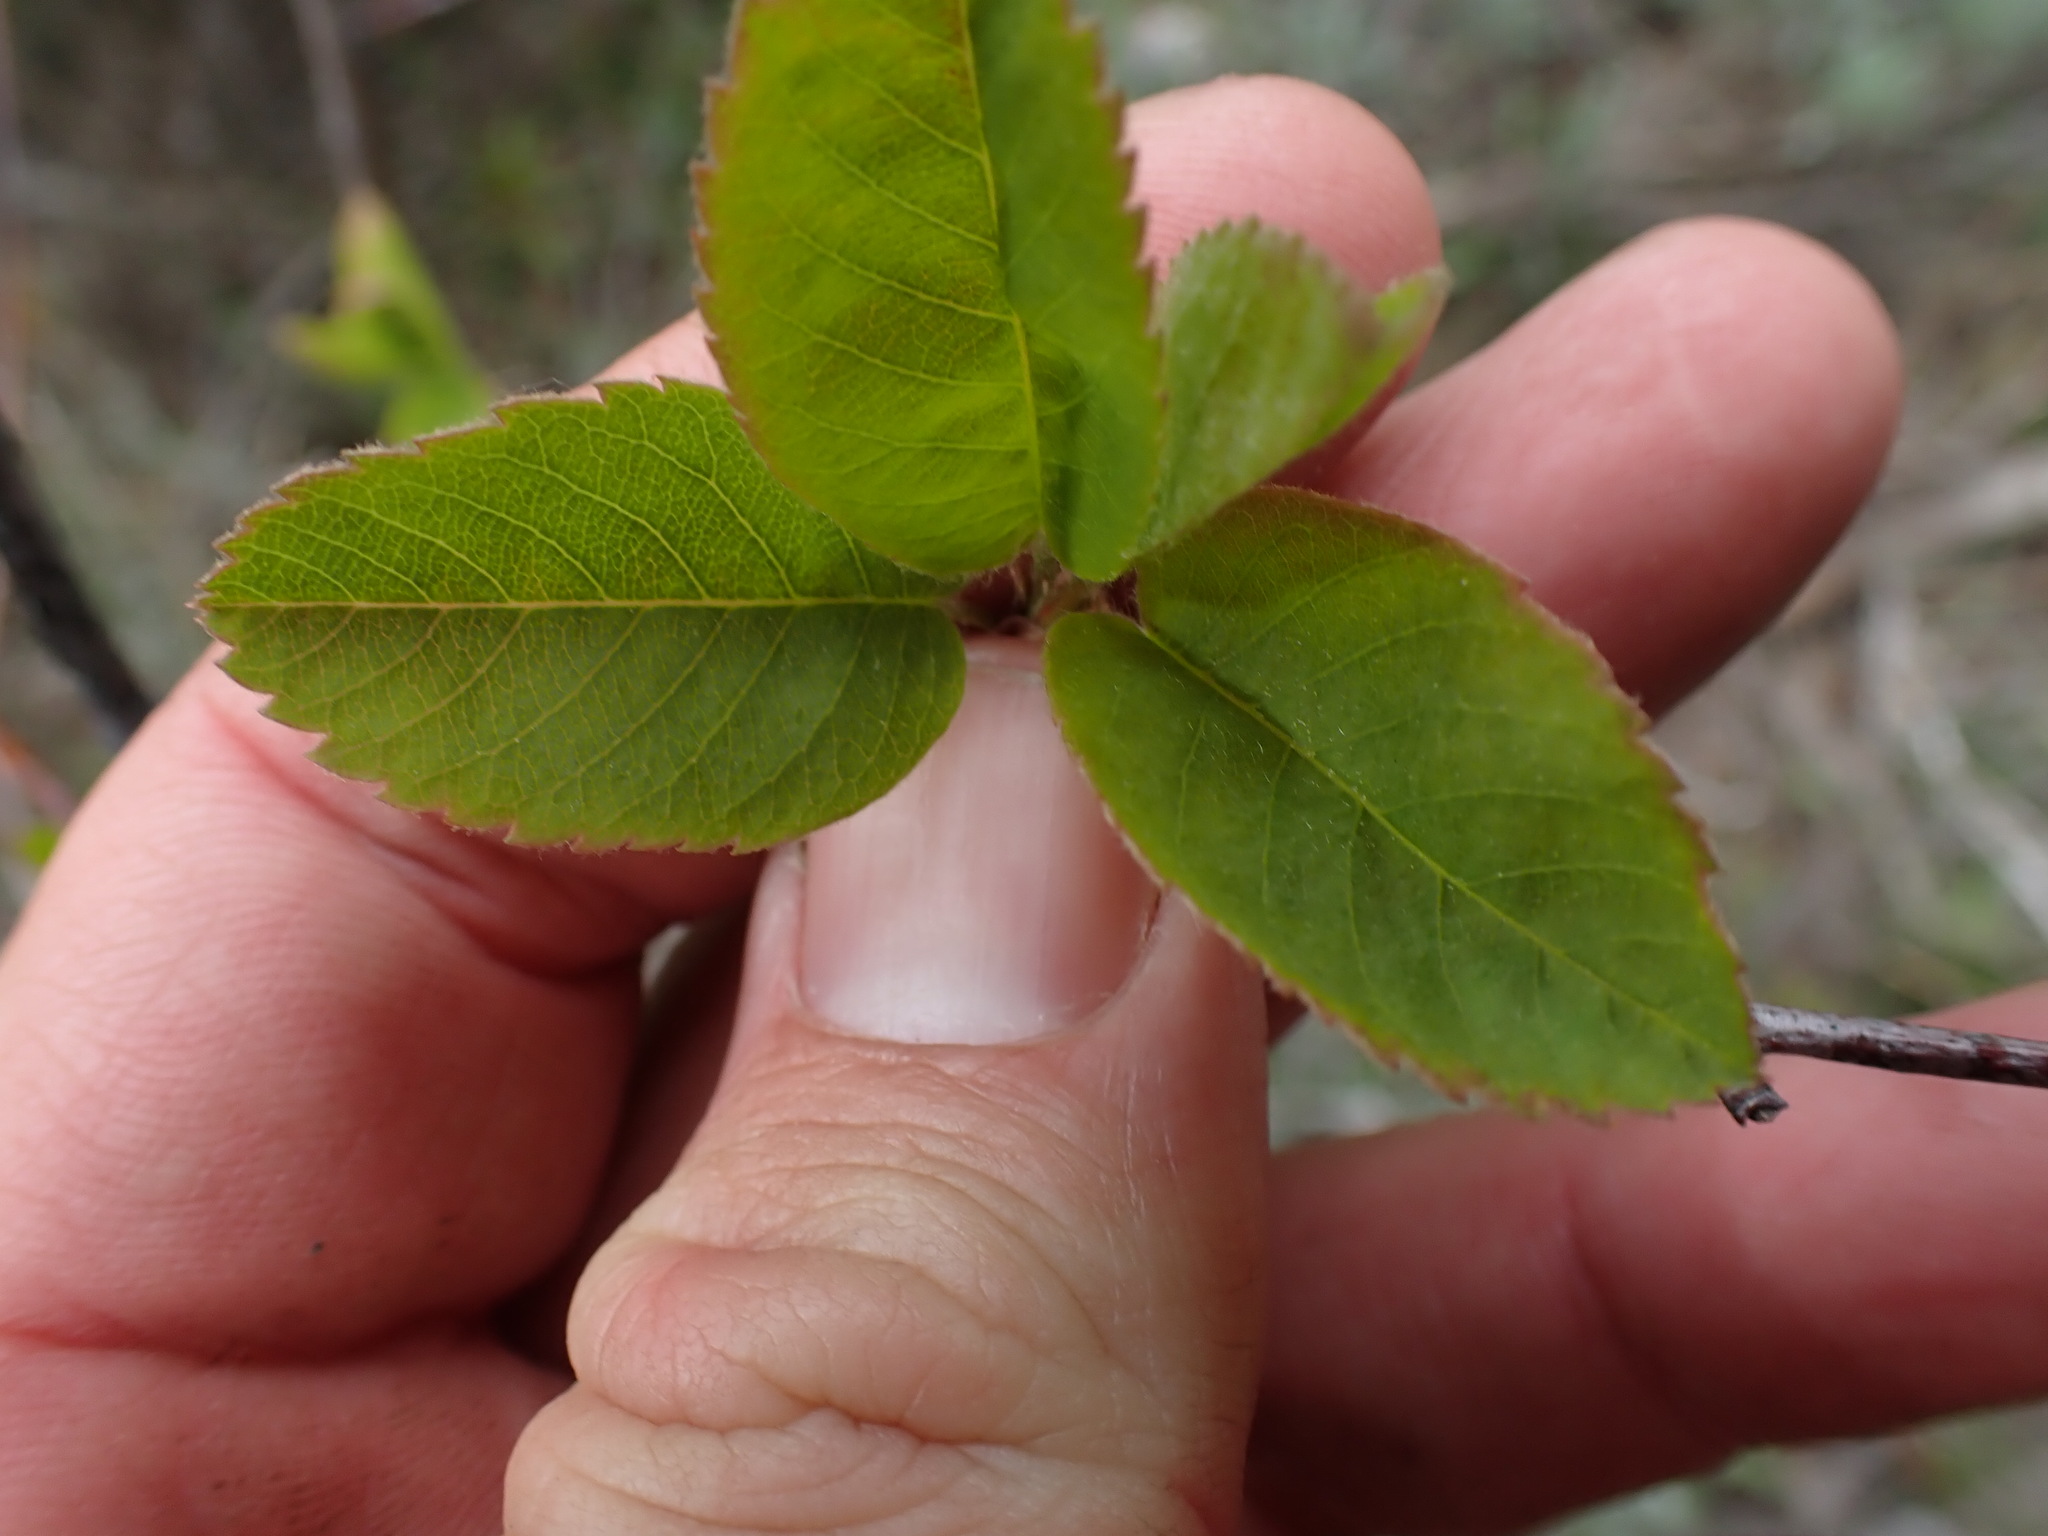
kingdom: Plantae
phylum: Tracheophyta
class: Magnoliopsida
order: Rosales
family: Rosaceae
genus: Amelanchier
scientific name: Amelanchier alnifolia
